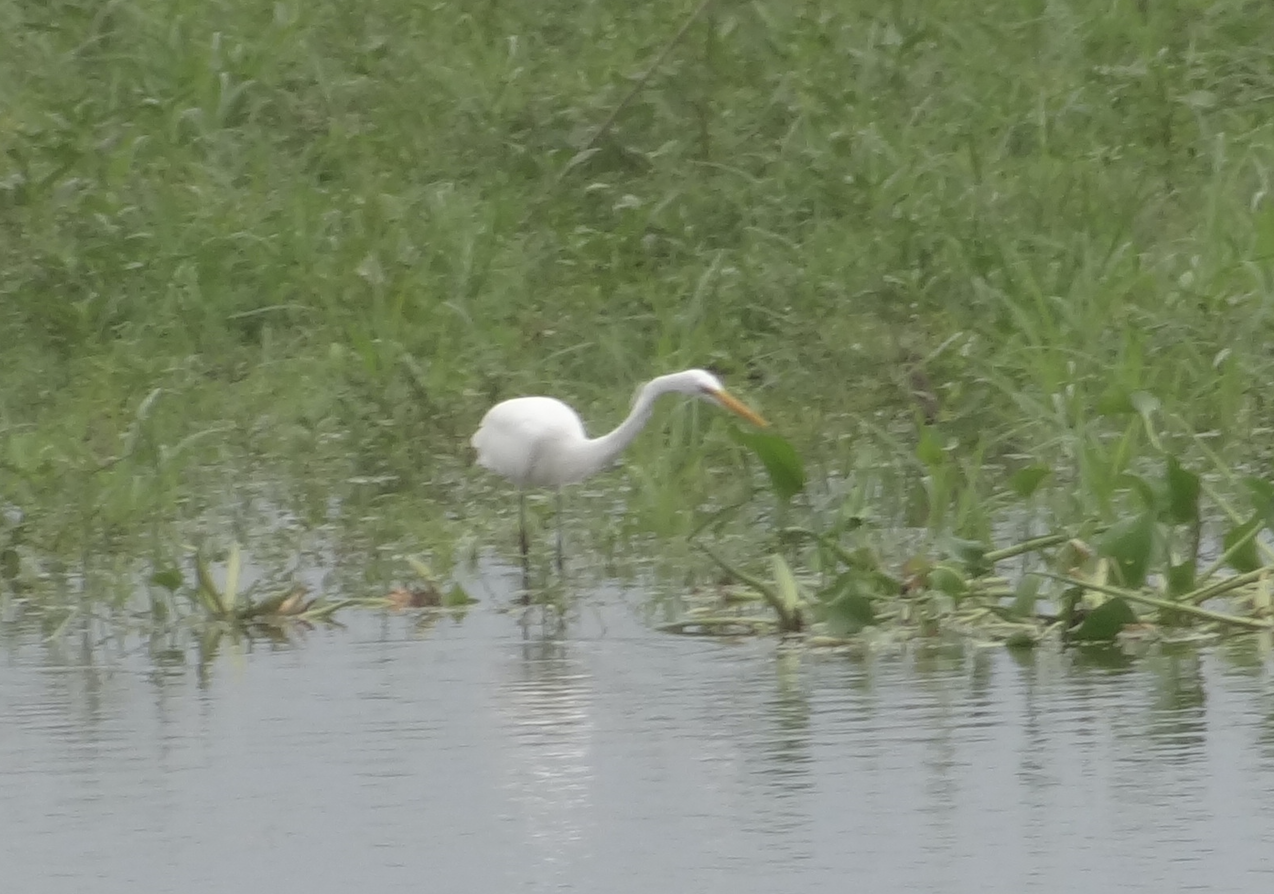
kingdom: Animalia
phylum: Chordata
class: Aves
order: Pelecaniformes
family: Ardeidae
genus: Ardea
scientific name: Ardea alba
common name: Great egret
